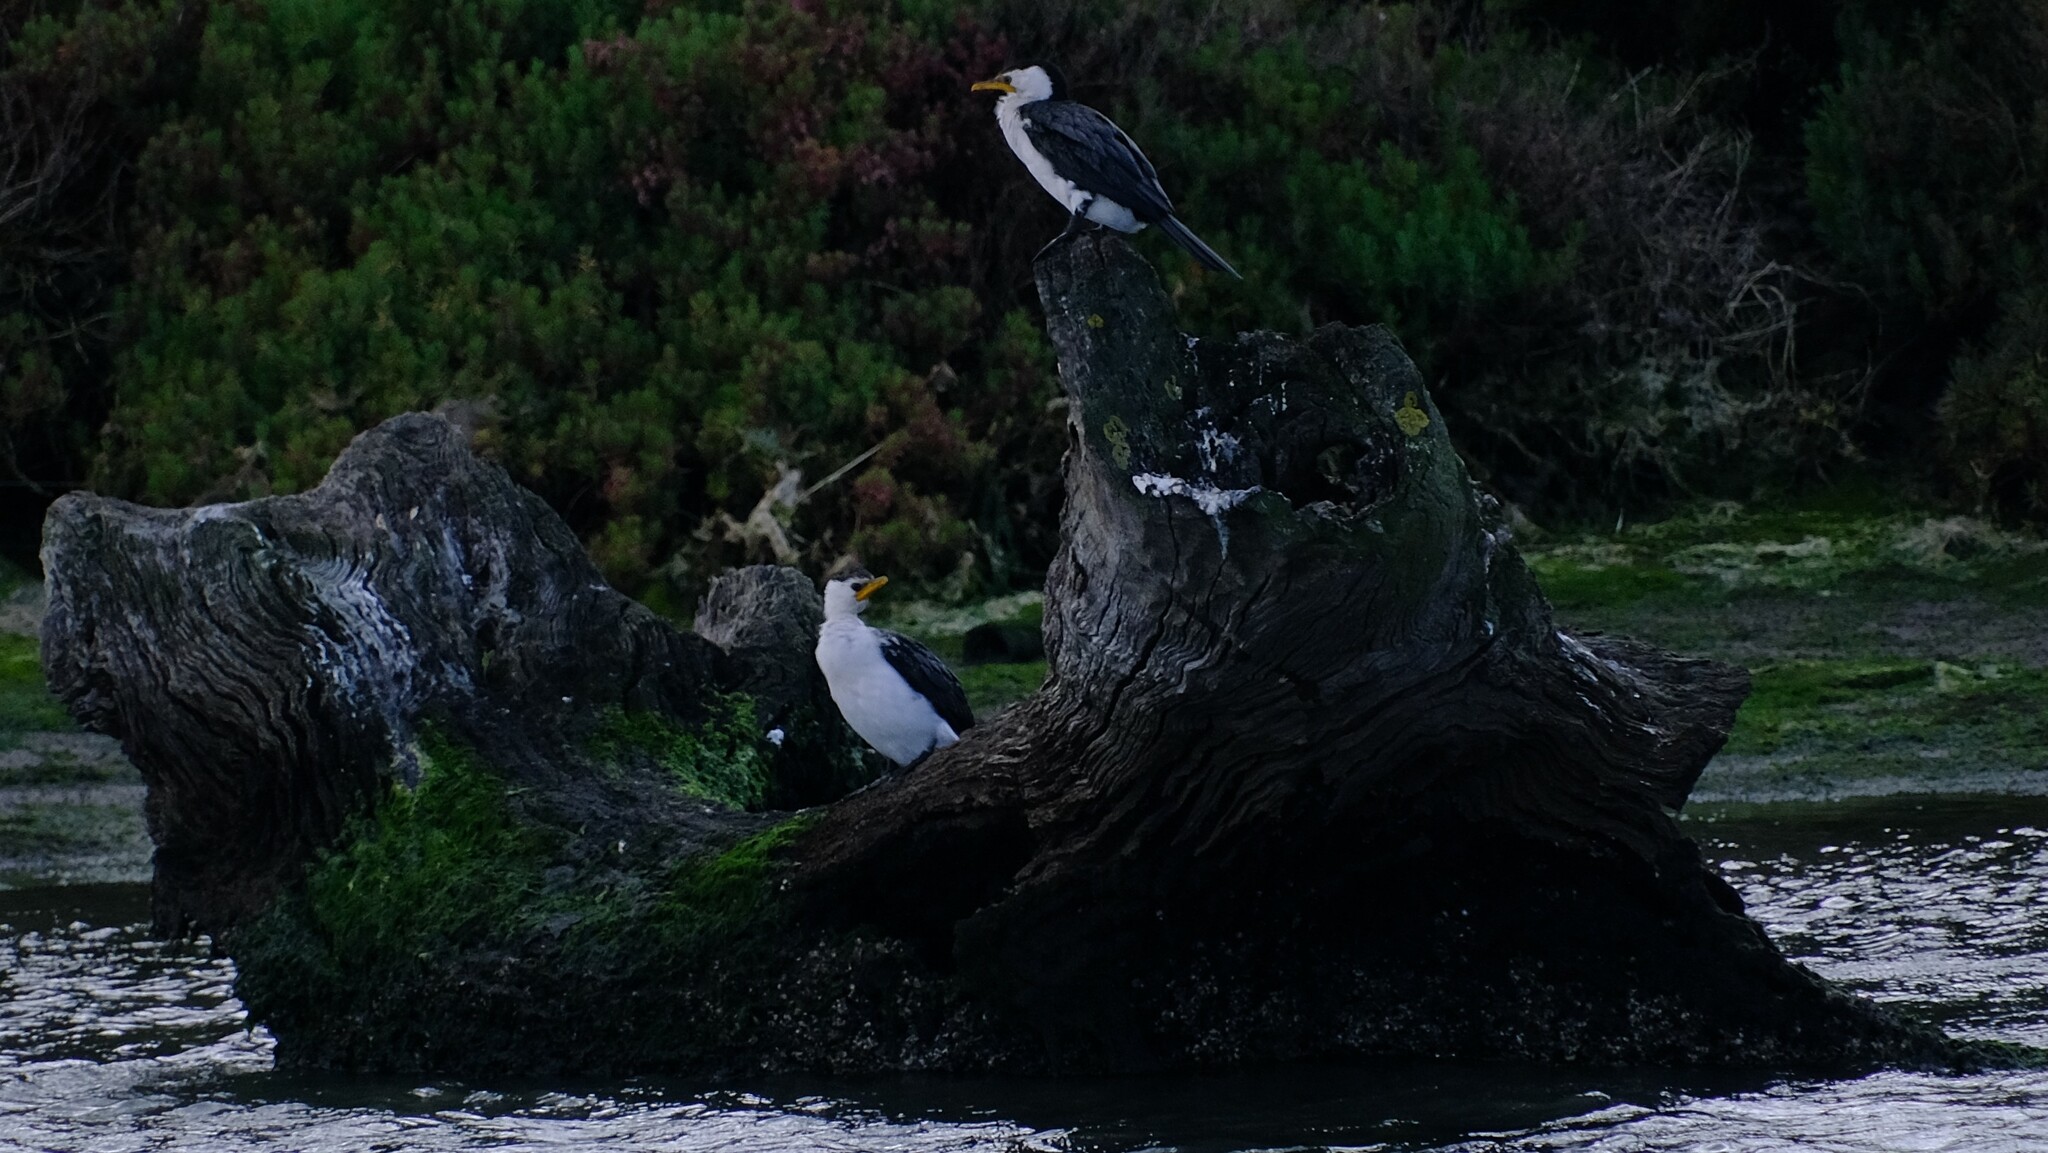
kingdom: Animalia
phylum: Chordata
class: Aves
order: Suliformes
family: Phalacrocoracidae
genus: Microcarbo
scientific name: Microcarbo melanoleucos
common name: Little pied cormorant
